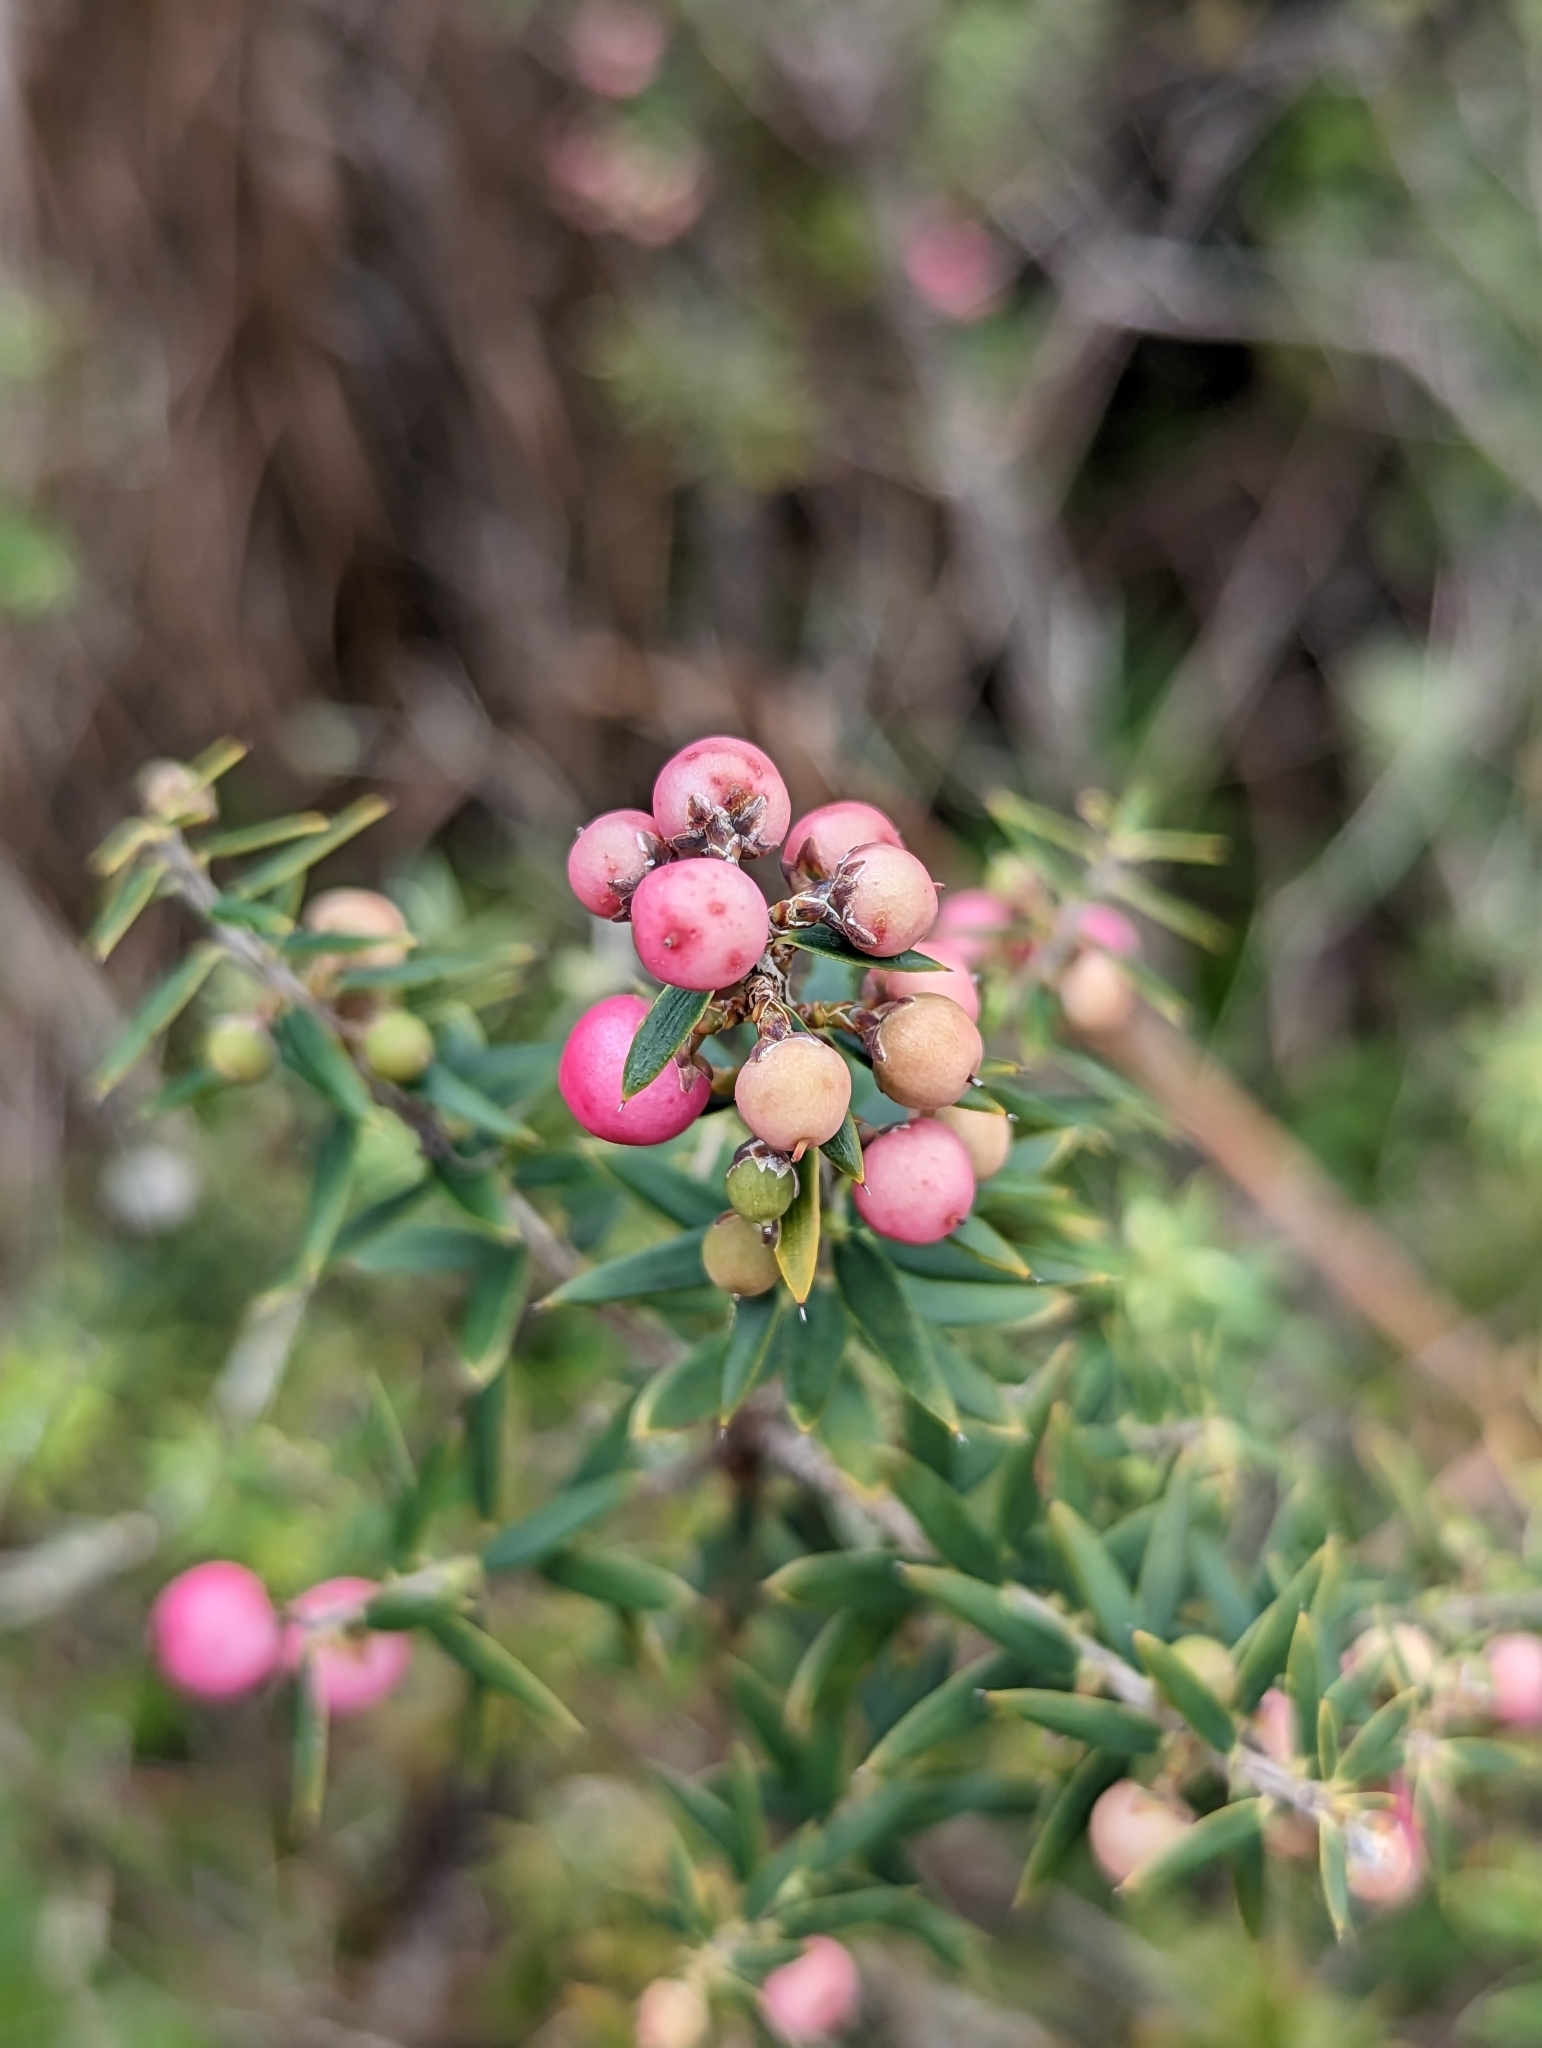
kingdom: Plantae
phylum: Tracheophyta
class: Magnoliopsida
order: Ericales
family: Ericaceae
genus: Leptecophylla
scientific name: Leptecophylla tameiameiae
